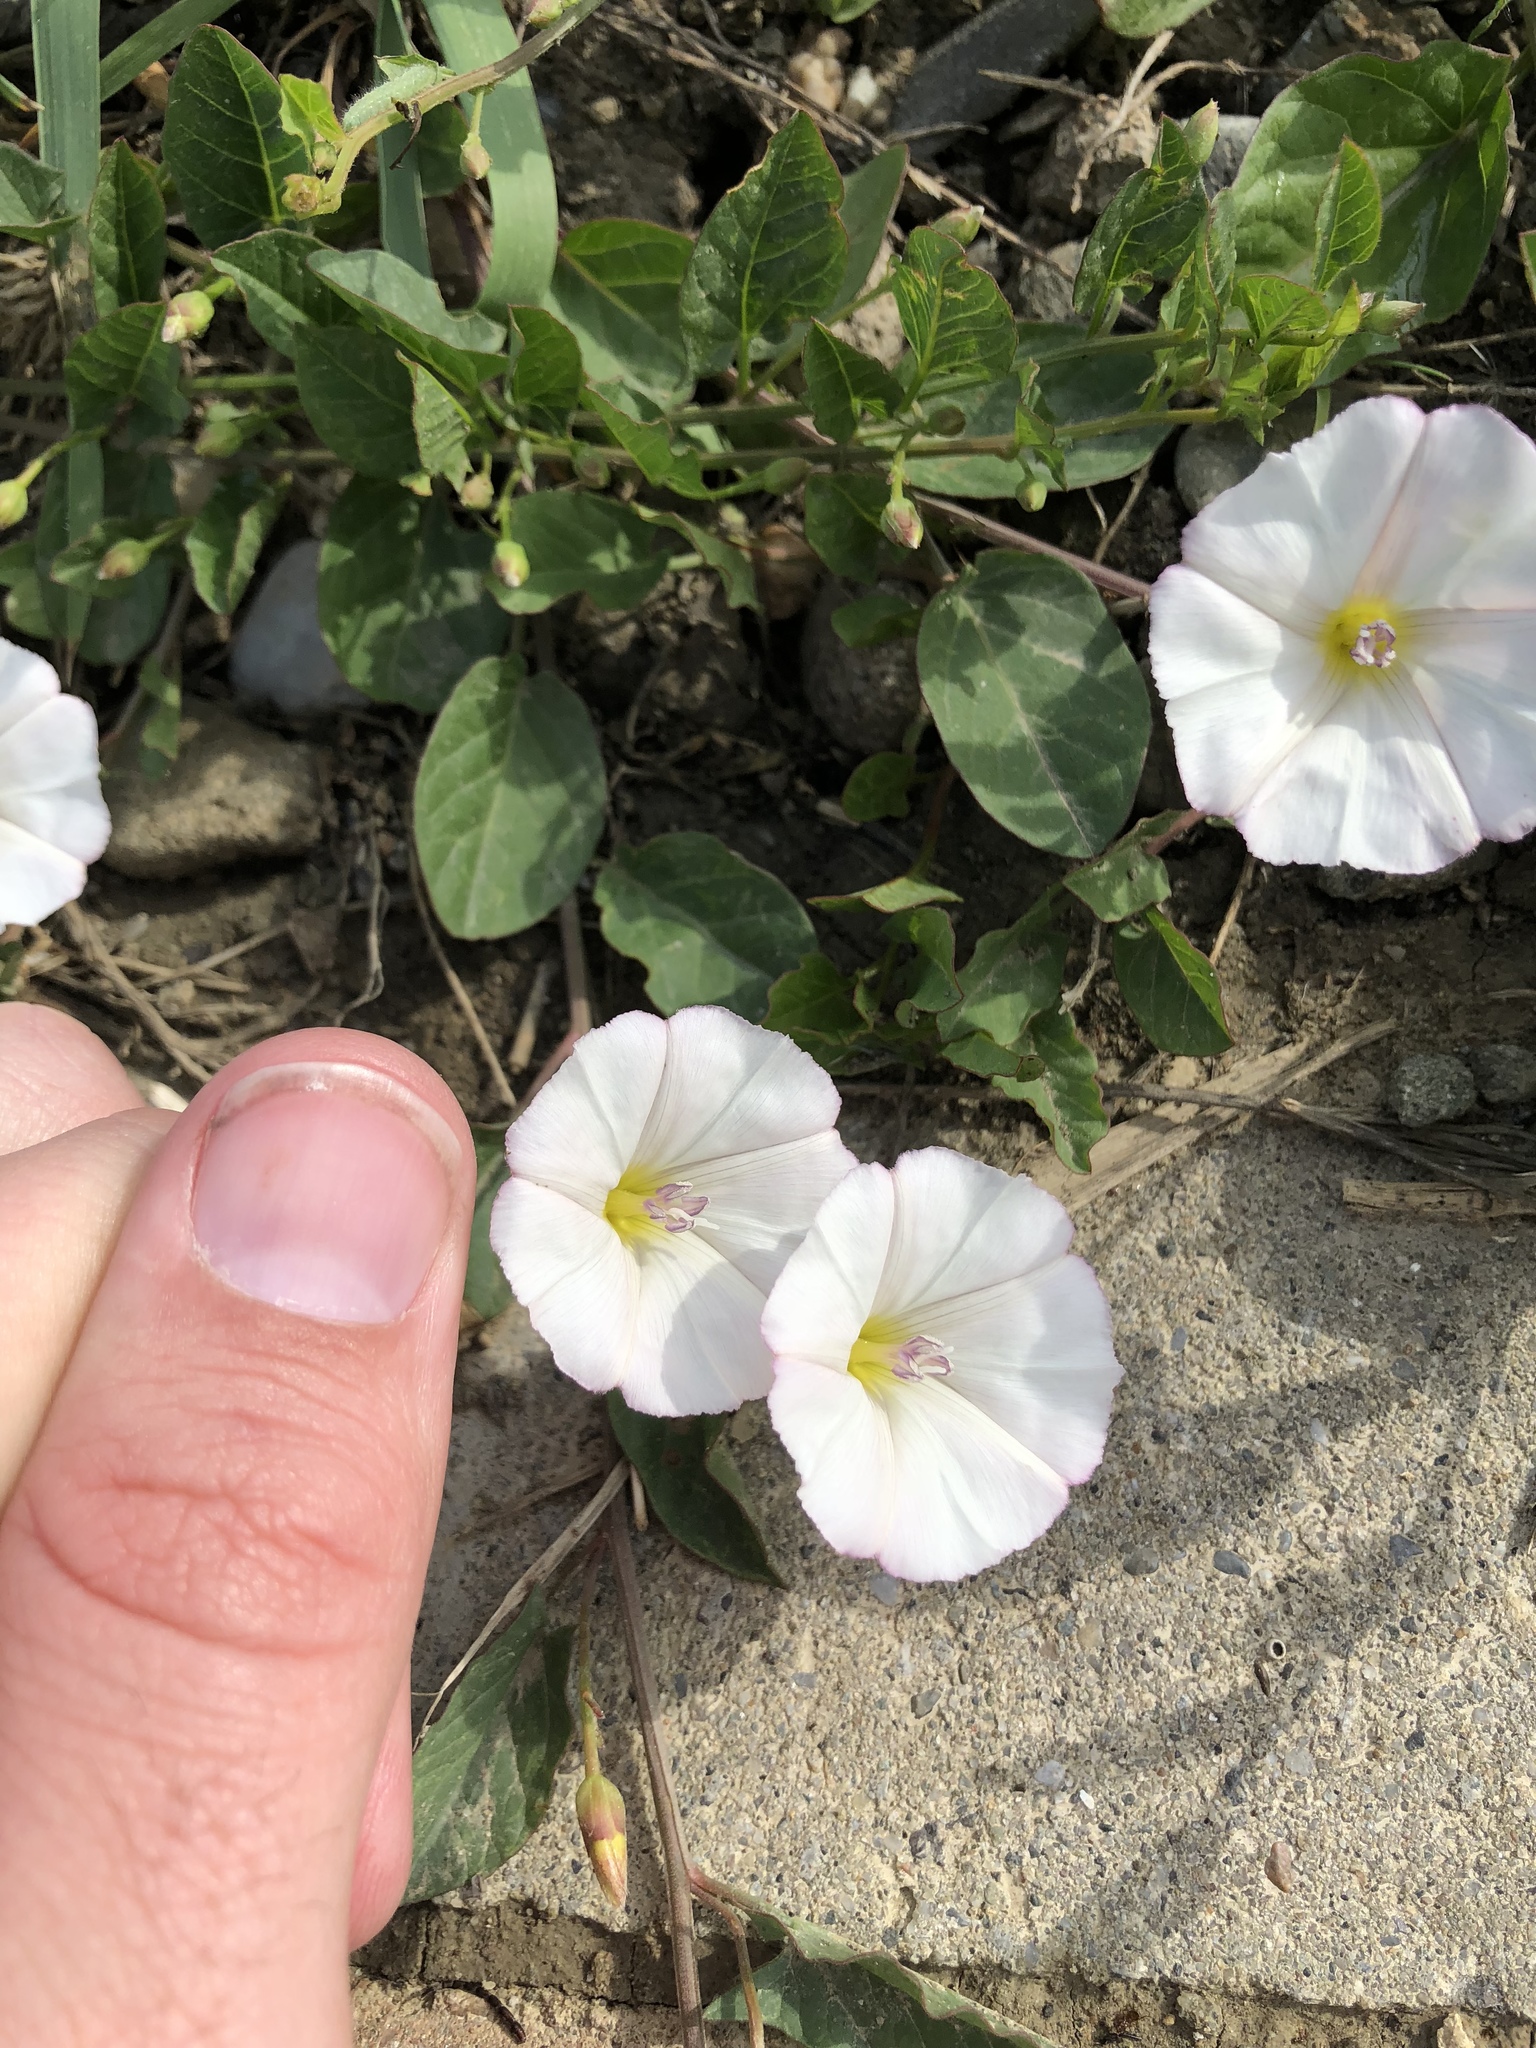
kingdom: Plantae
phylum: Tracheophyta
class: Magnoliopsida
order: Solanales
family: Convolvulaceae
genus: Convolvulus
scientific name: Convolvulus arvensis
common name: Field bindweed
